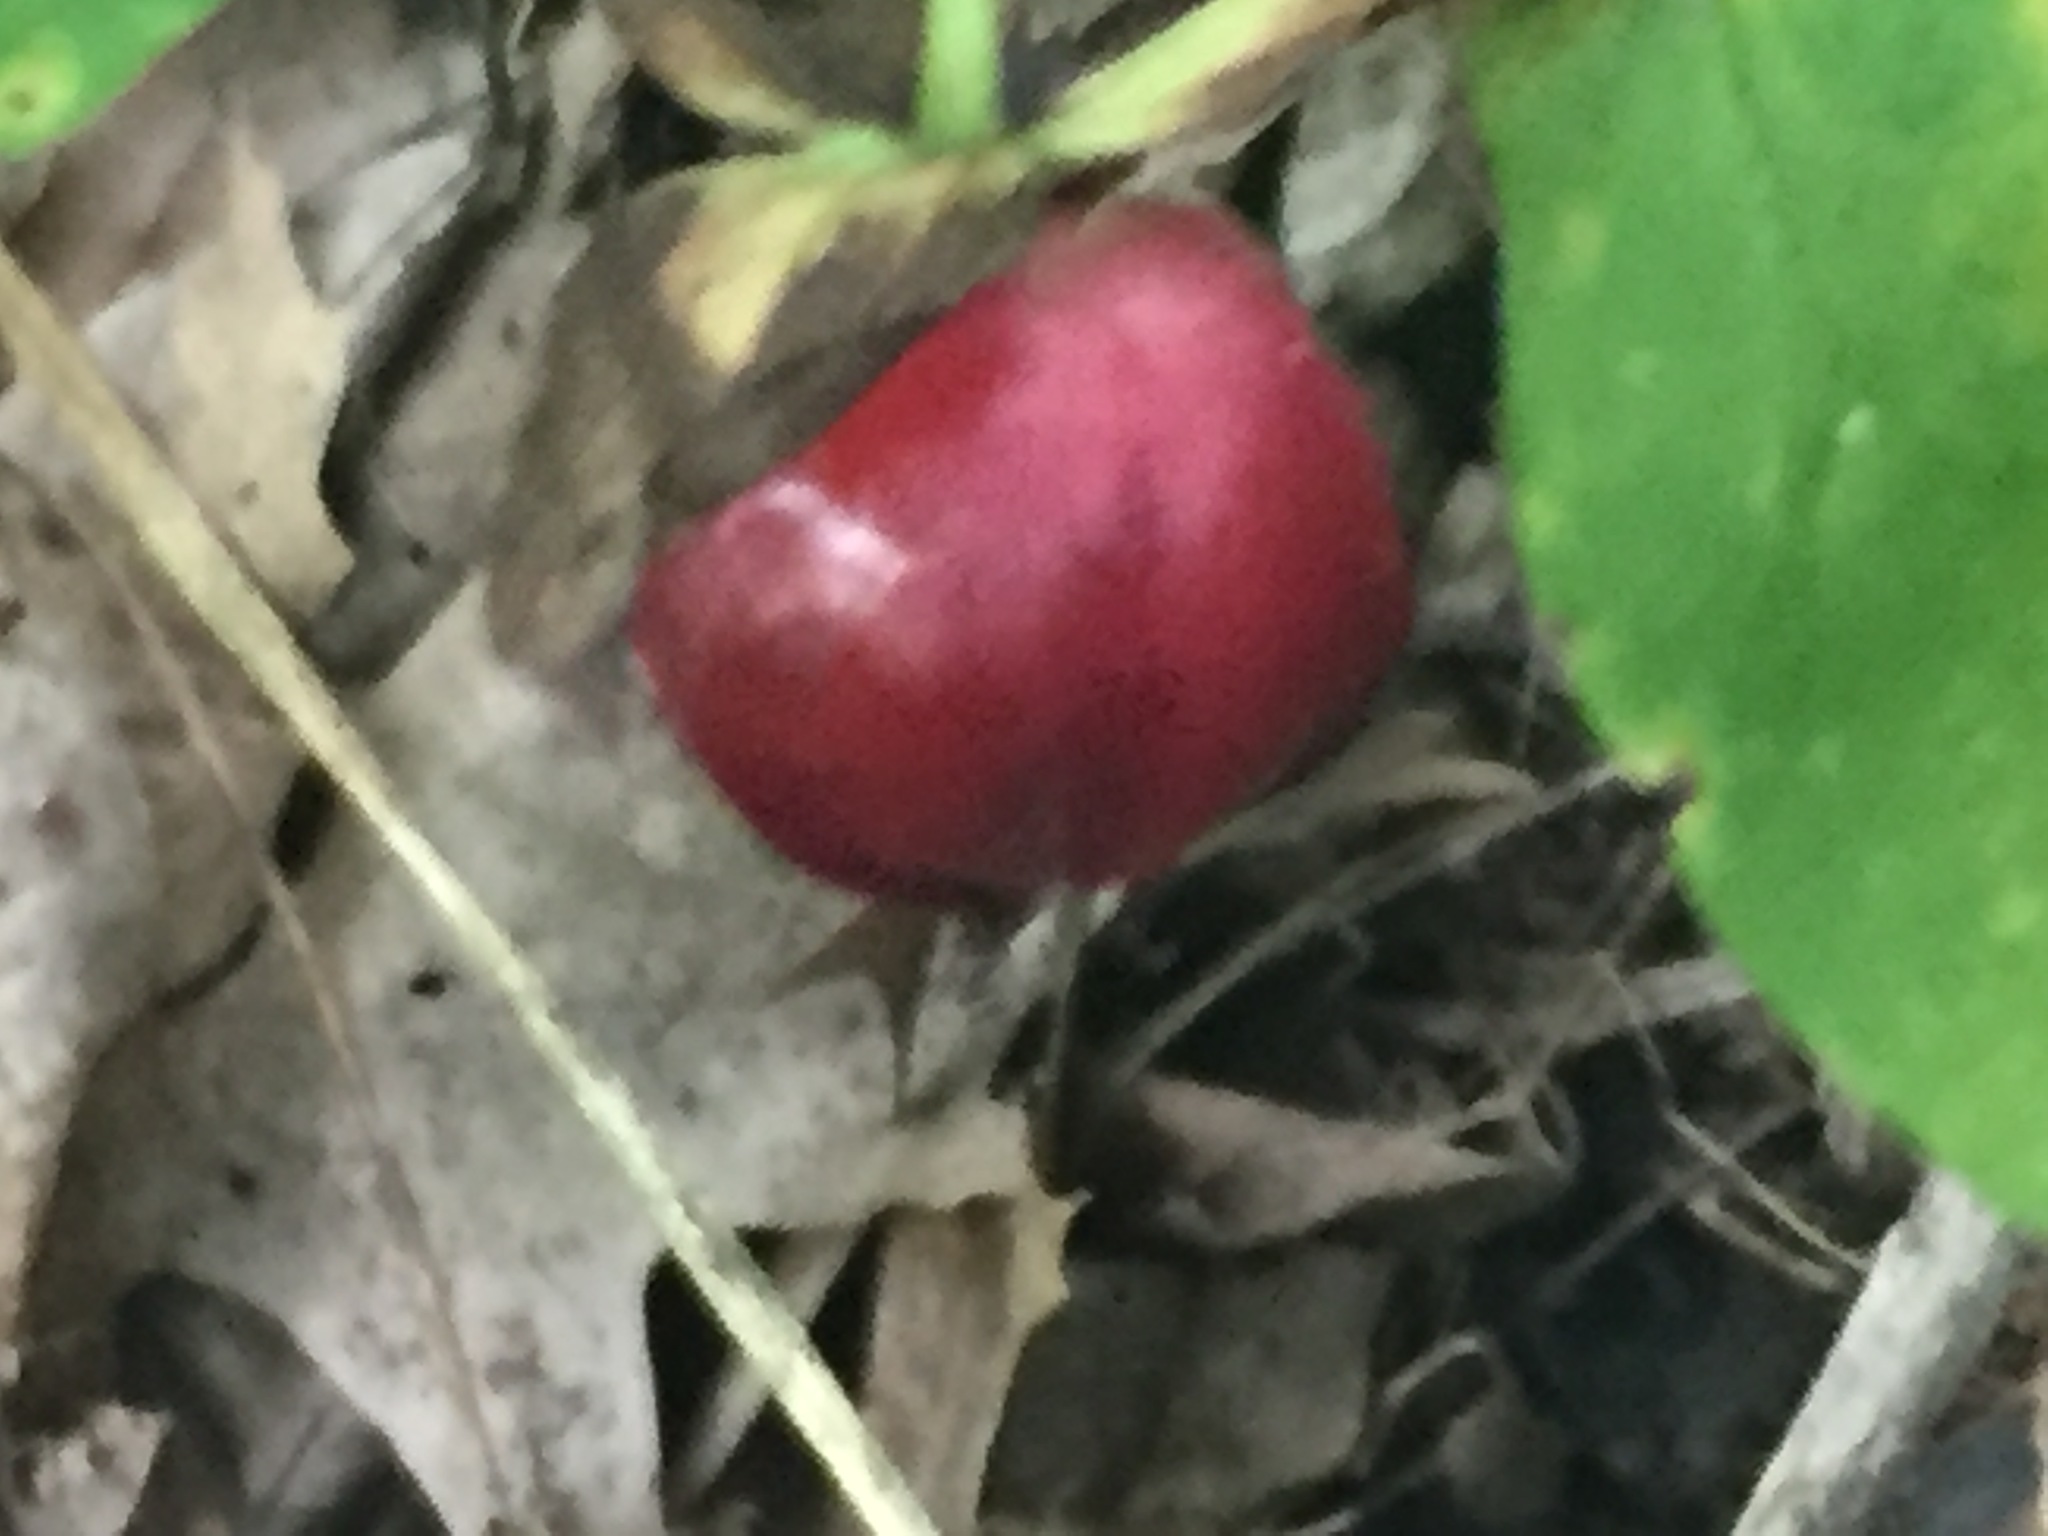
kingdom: Plantae
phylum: Tracheophyta
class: Liliopsida
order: Liliales
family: Melanthiaceae
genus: Trillium
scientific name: Trillium erectum
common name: Purple trillium
